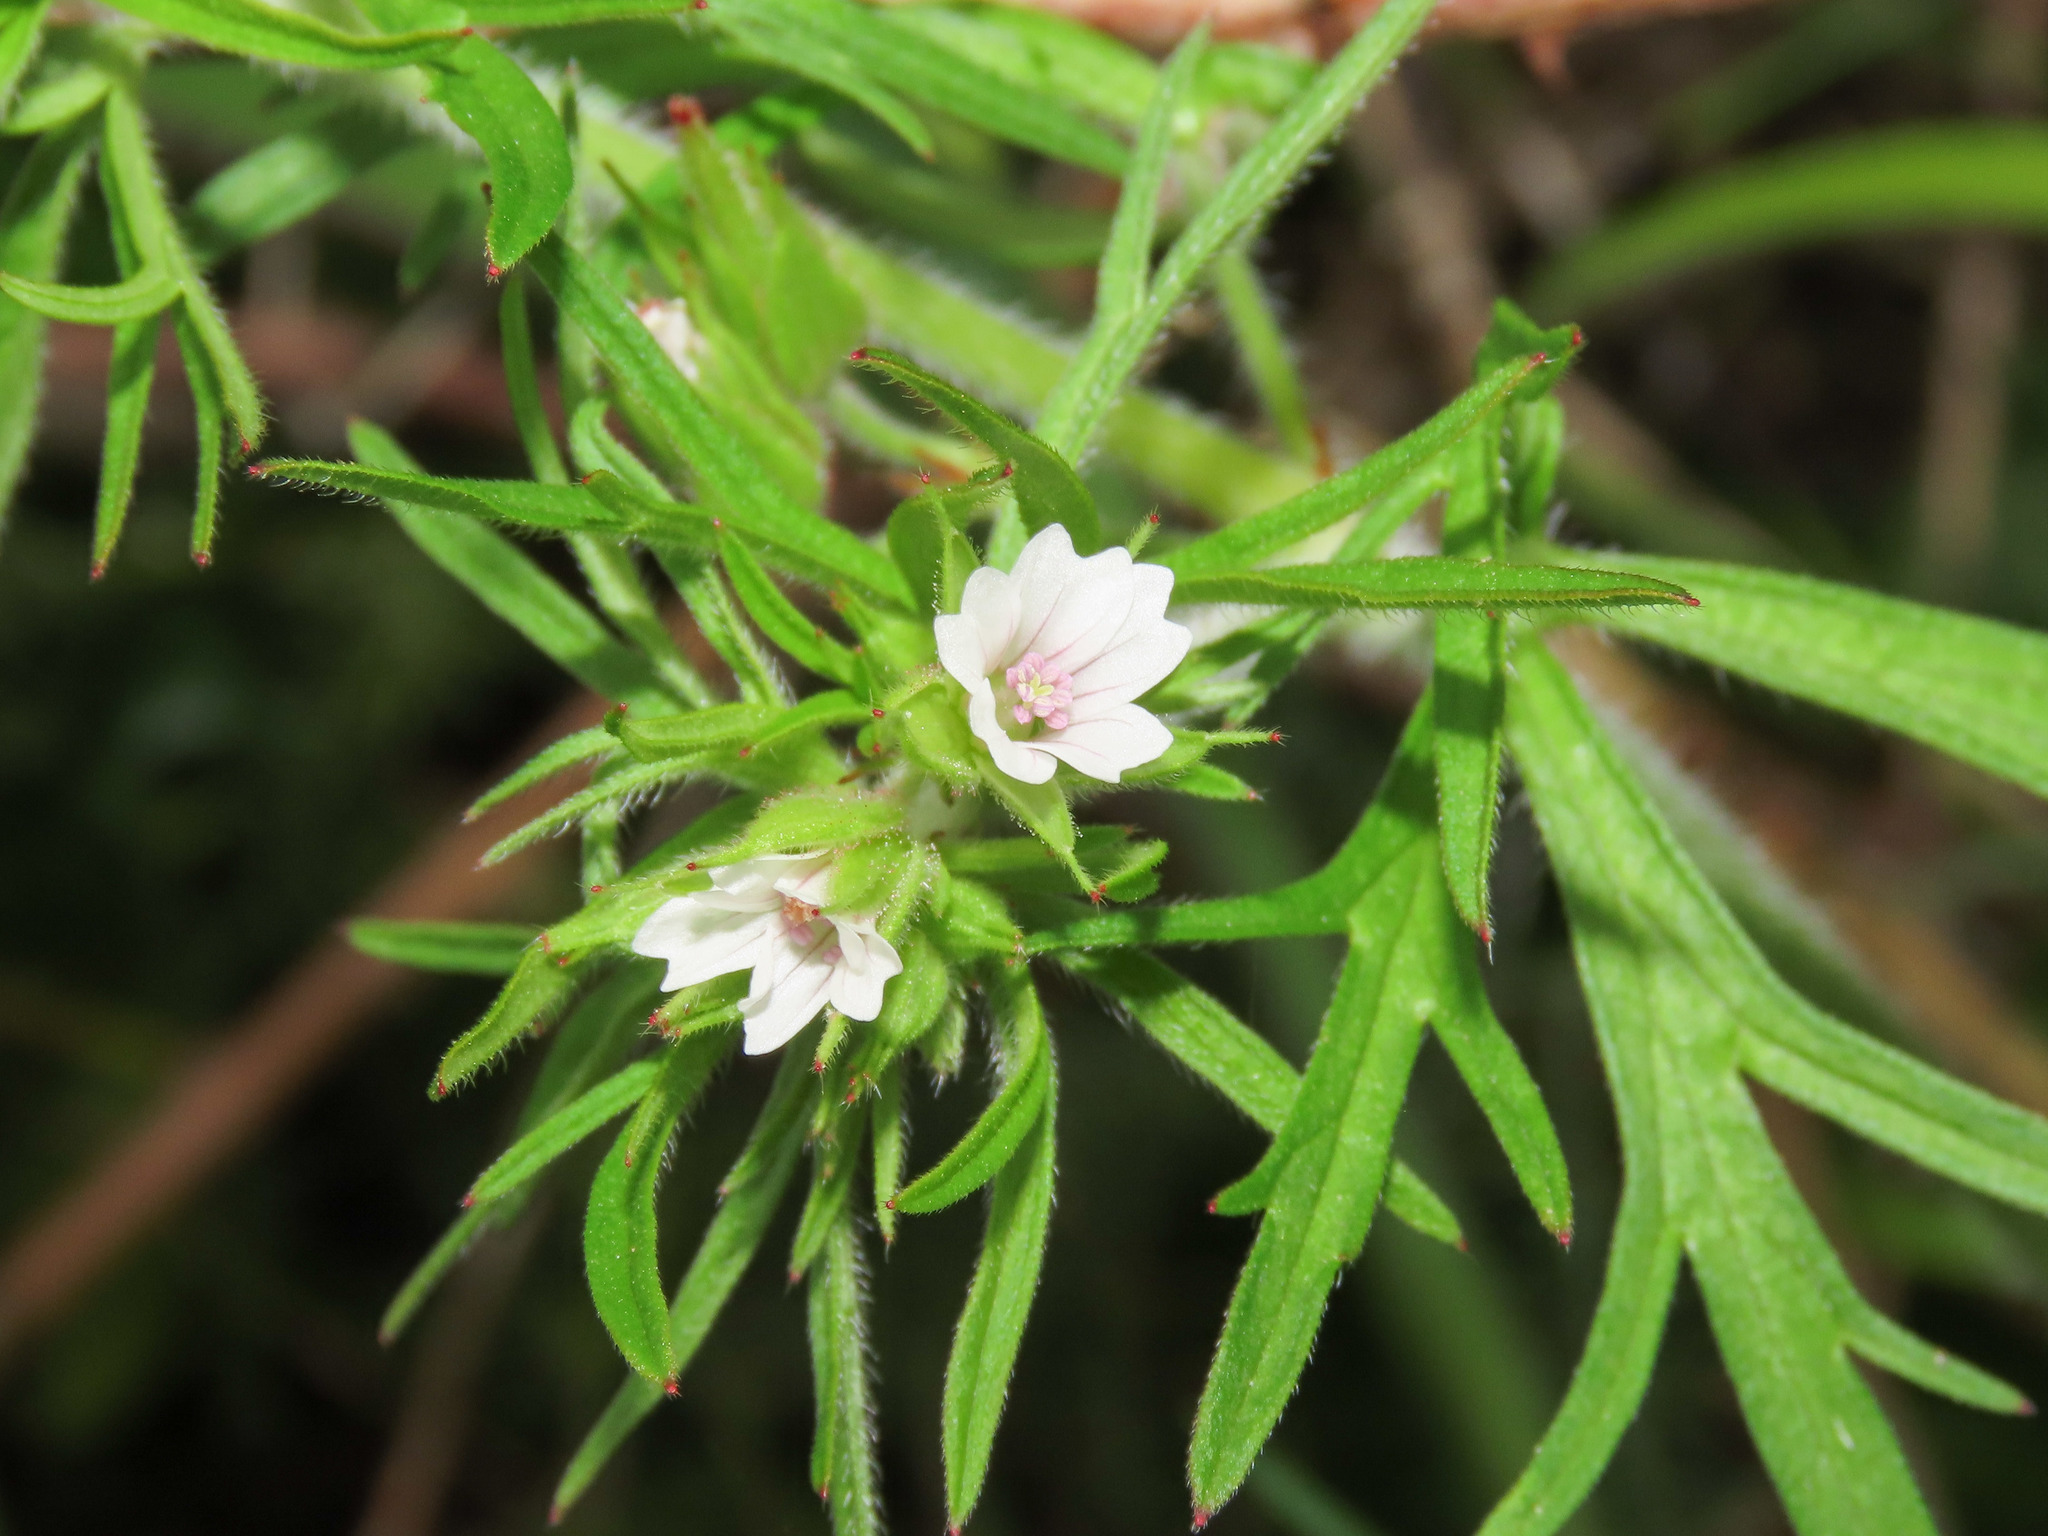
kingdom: Plantae
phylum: Tracheophyta
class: Magnoliopsida
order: Geraniales
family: Geraniaceae
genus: Geranium
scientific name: Geranium dissectum
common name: Cut-leaved crane's-bill
